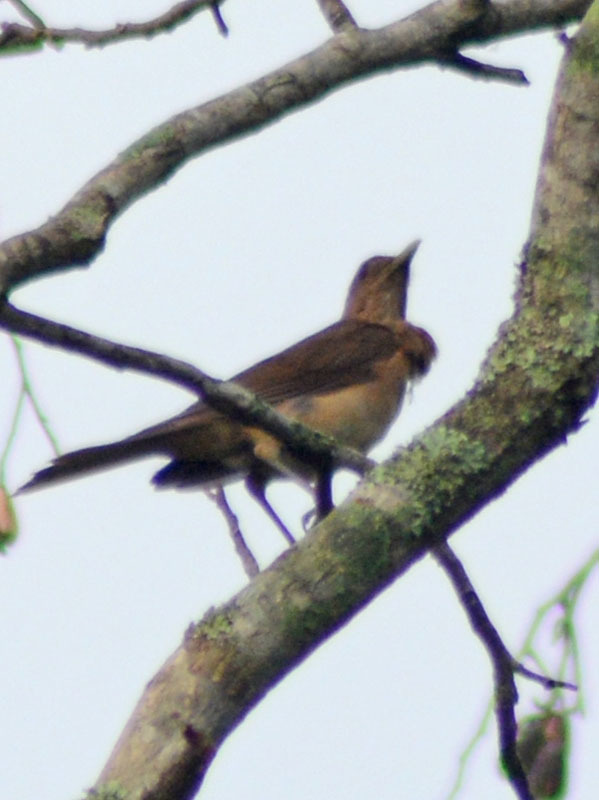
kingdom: Animalia
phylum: Chordata
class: Aves
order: Passeriformes
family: Turdidae
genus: Turdus
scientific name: Turdus grayi
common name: Clay-colored thrush
